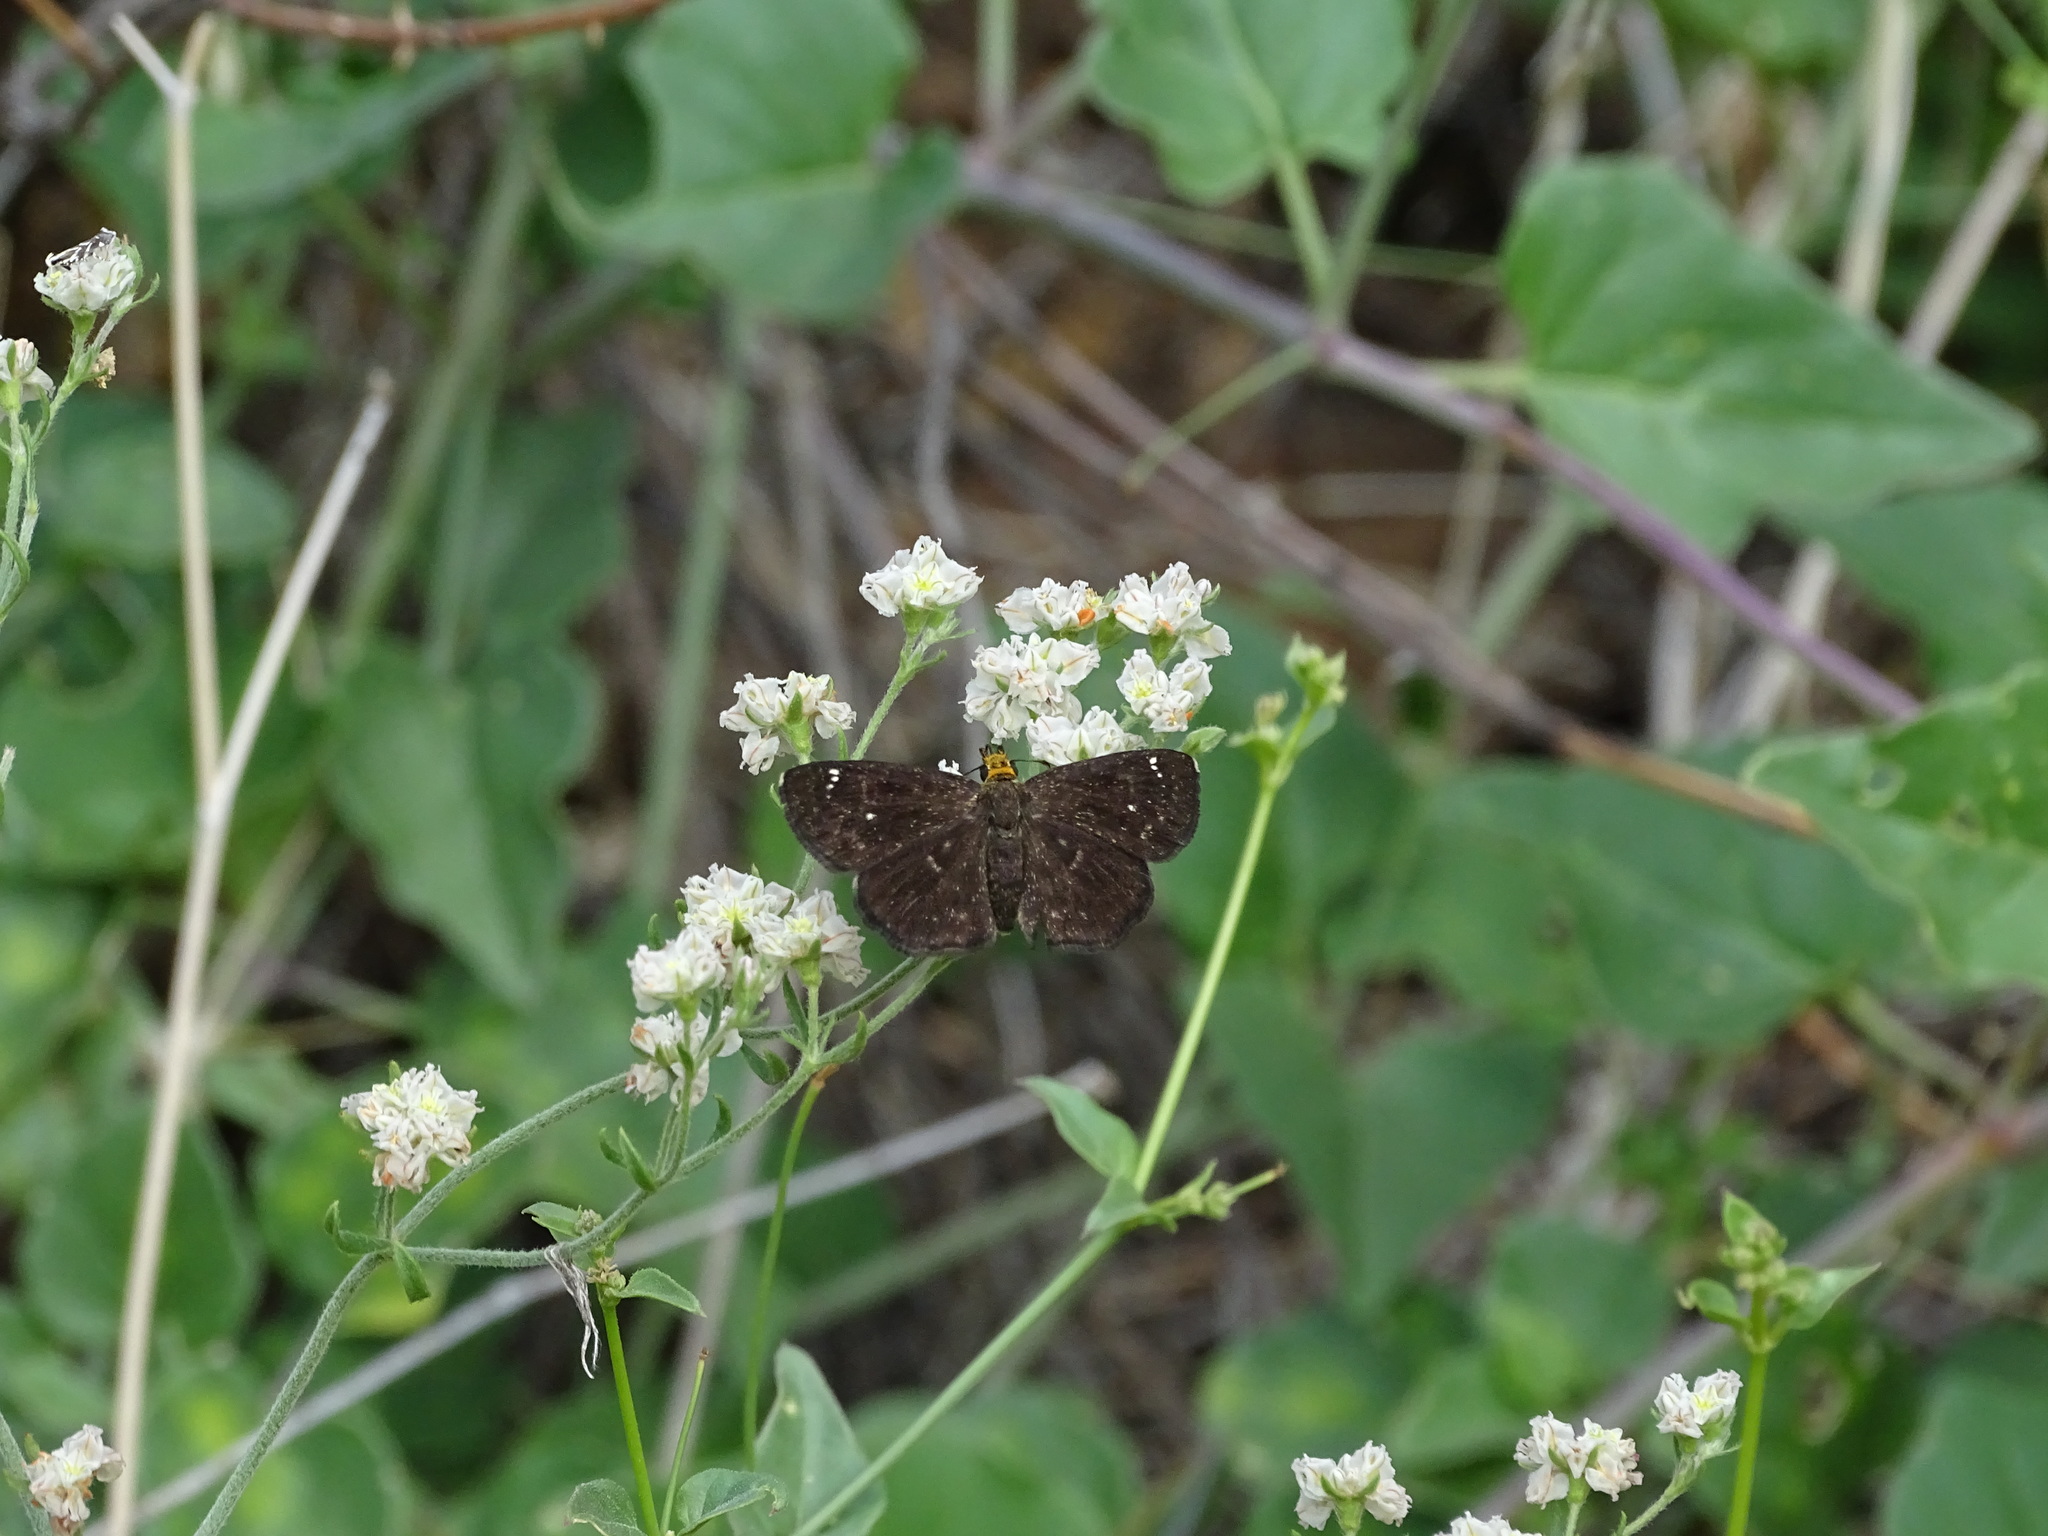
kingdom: Animalia
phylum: Arthropoda
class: Insecta
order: Lepidoptera
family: Hesperiidae
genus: Staphylus
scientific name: Staphylus ceos
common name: Golden-headed scallopwing
